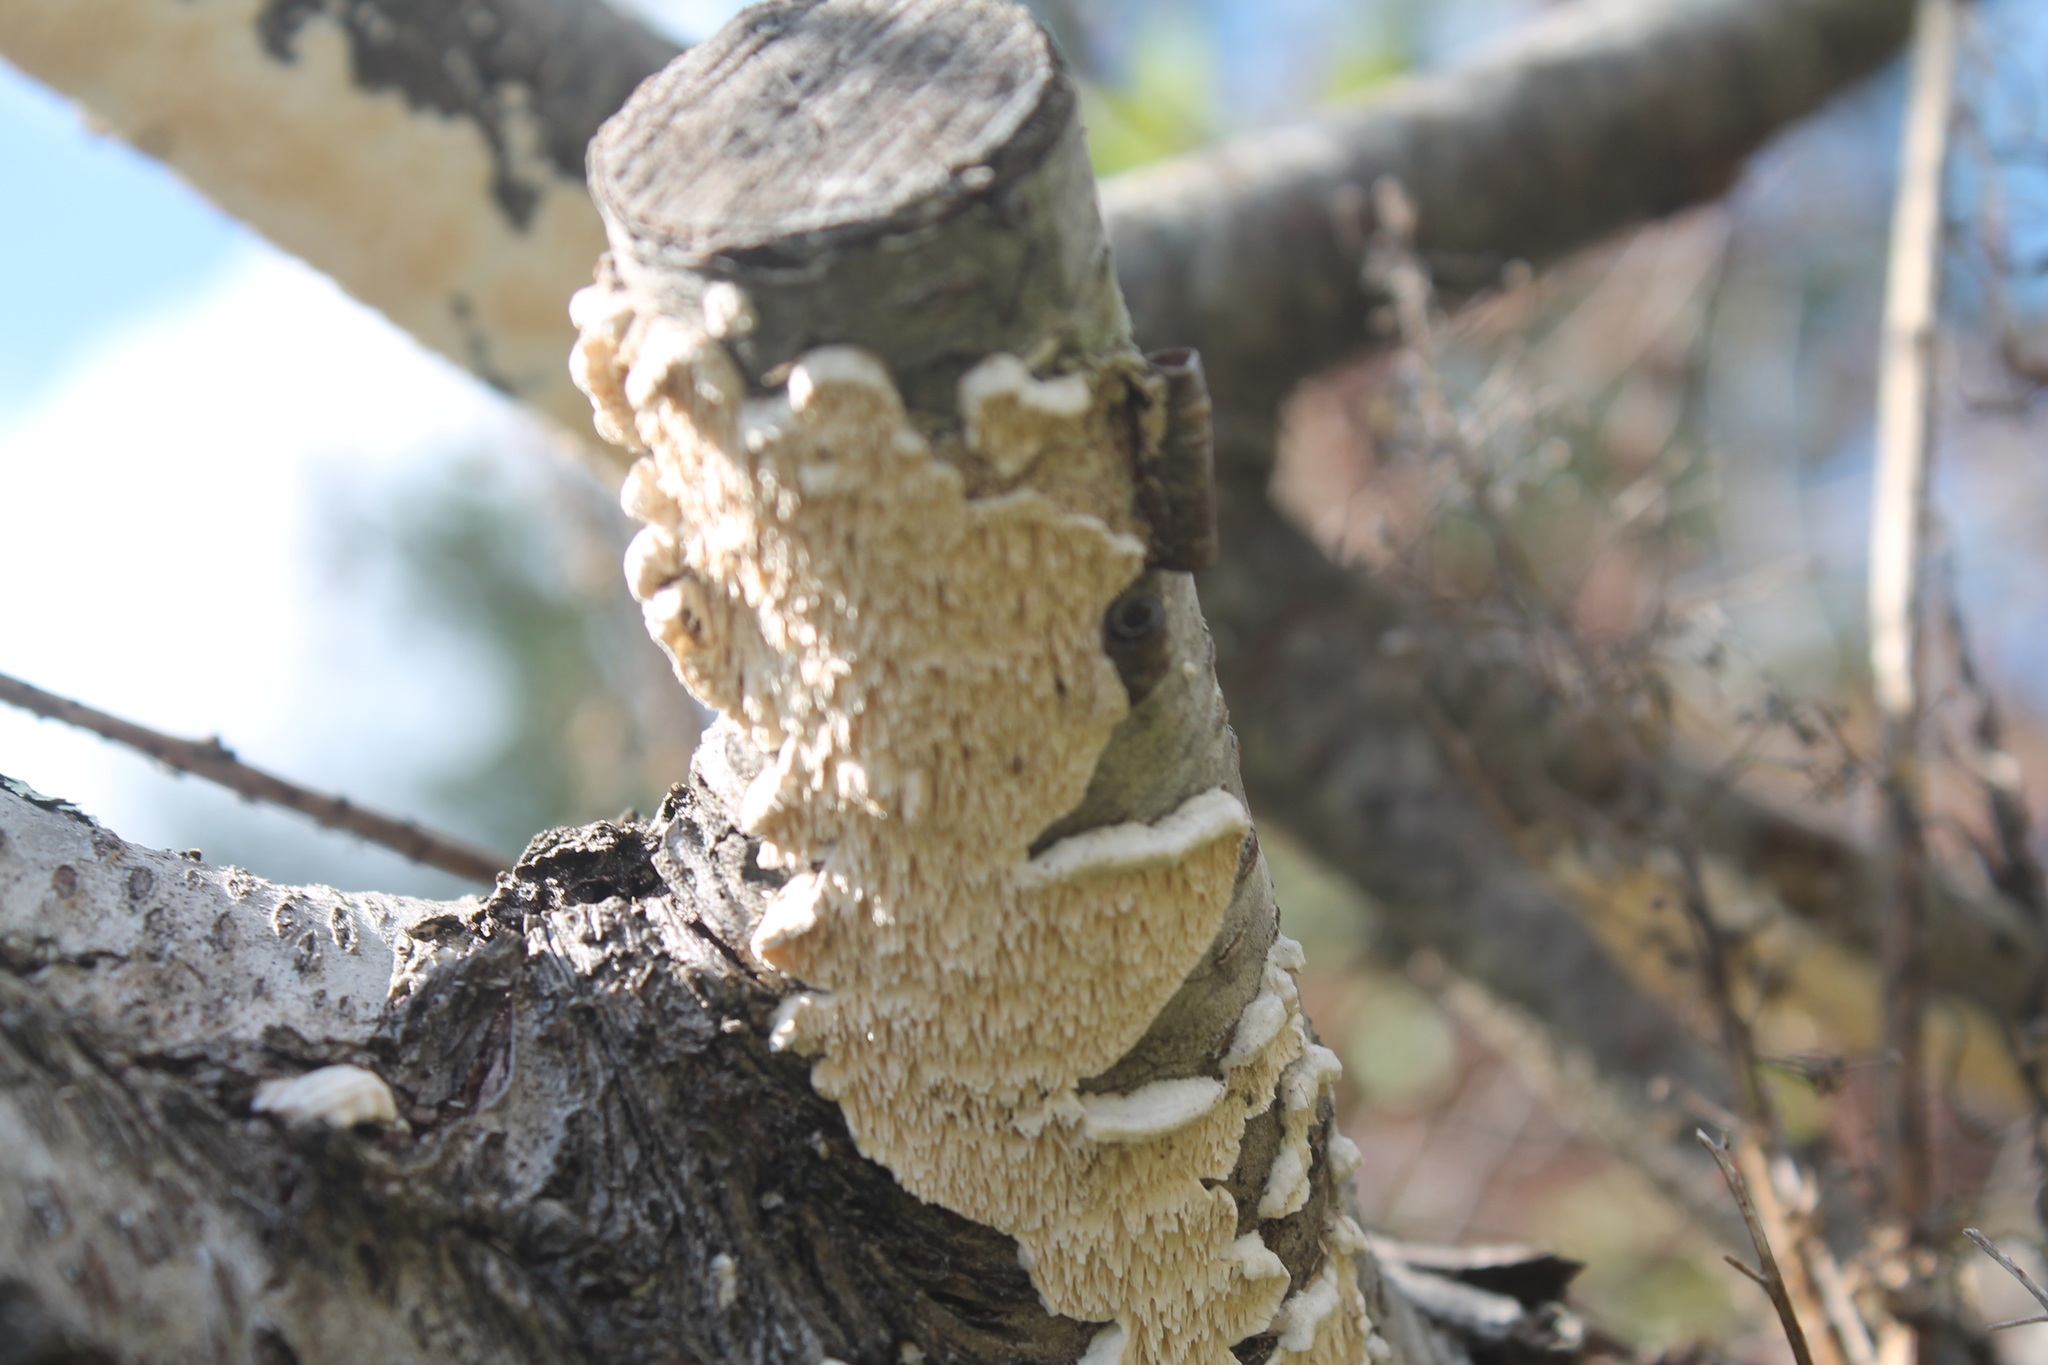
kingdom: Fungi
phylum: Basidiomycota
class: Agaricomycetes
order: Polyporales
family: Irpicaceae
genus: Irpex
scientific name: Irpex lacteus
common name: Milk-white toothed polypore
